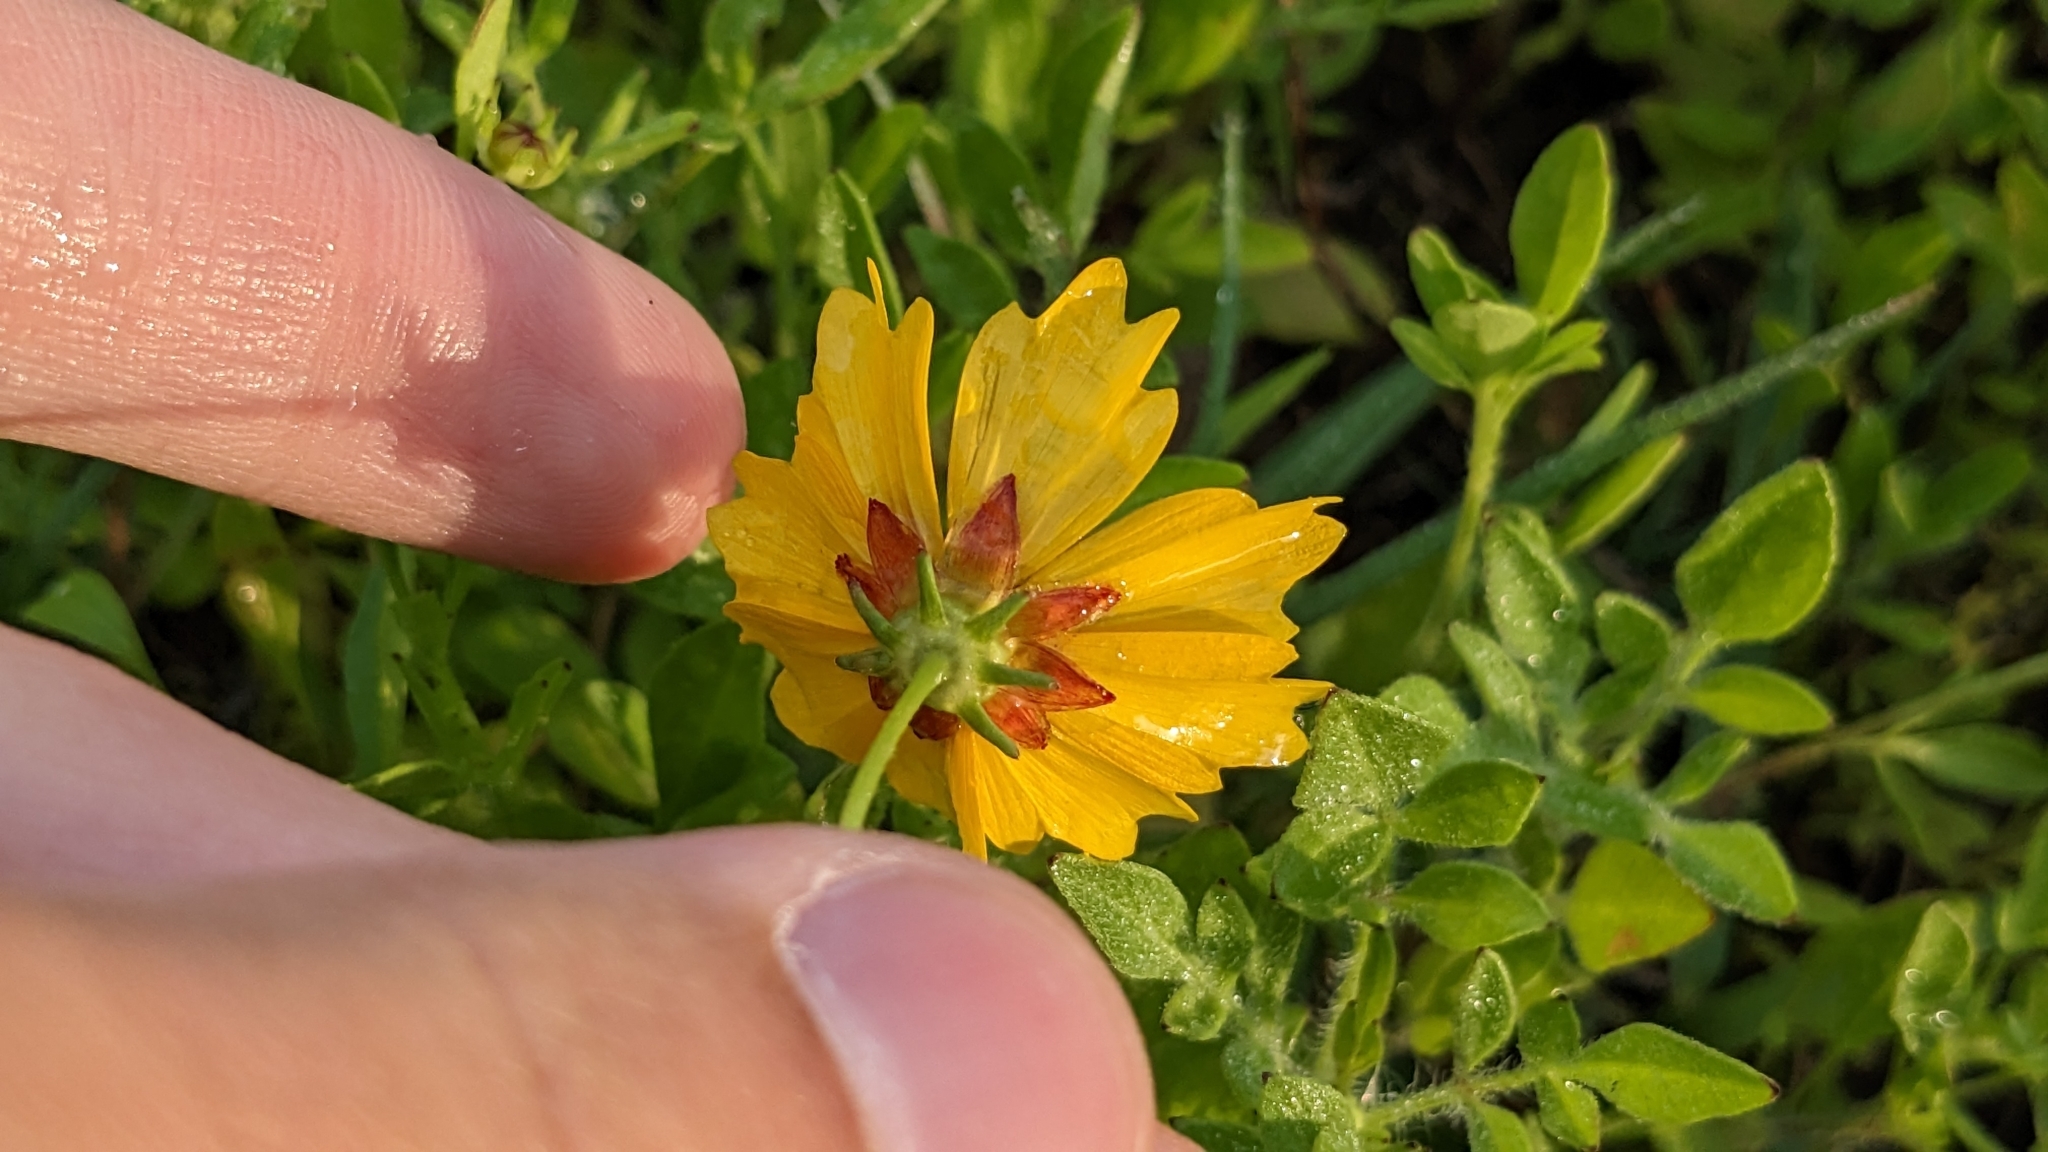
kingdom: Plantae
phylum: Tracheophyta
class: Magnoliopsida
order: Asterales
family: Asteraceae
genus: Coreopsis
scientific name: Coreopsis nuecensis
